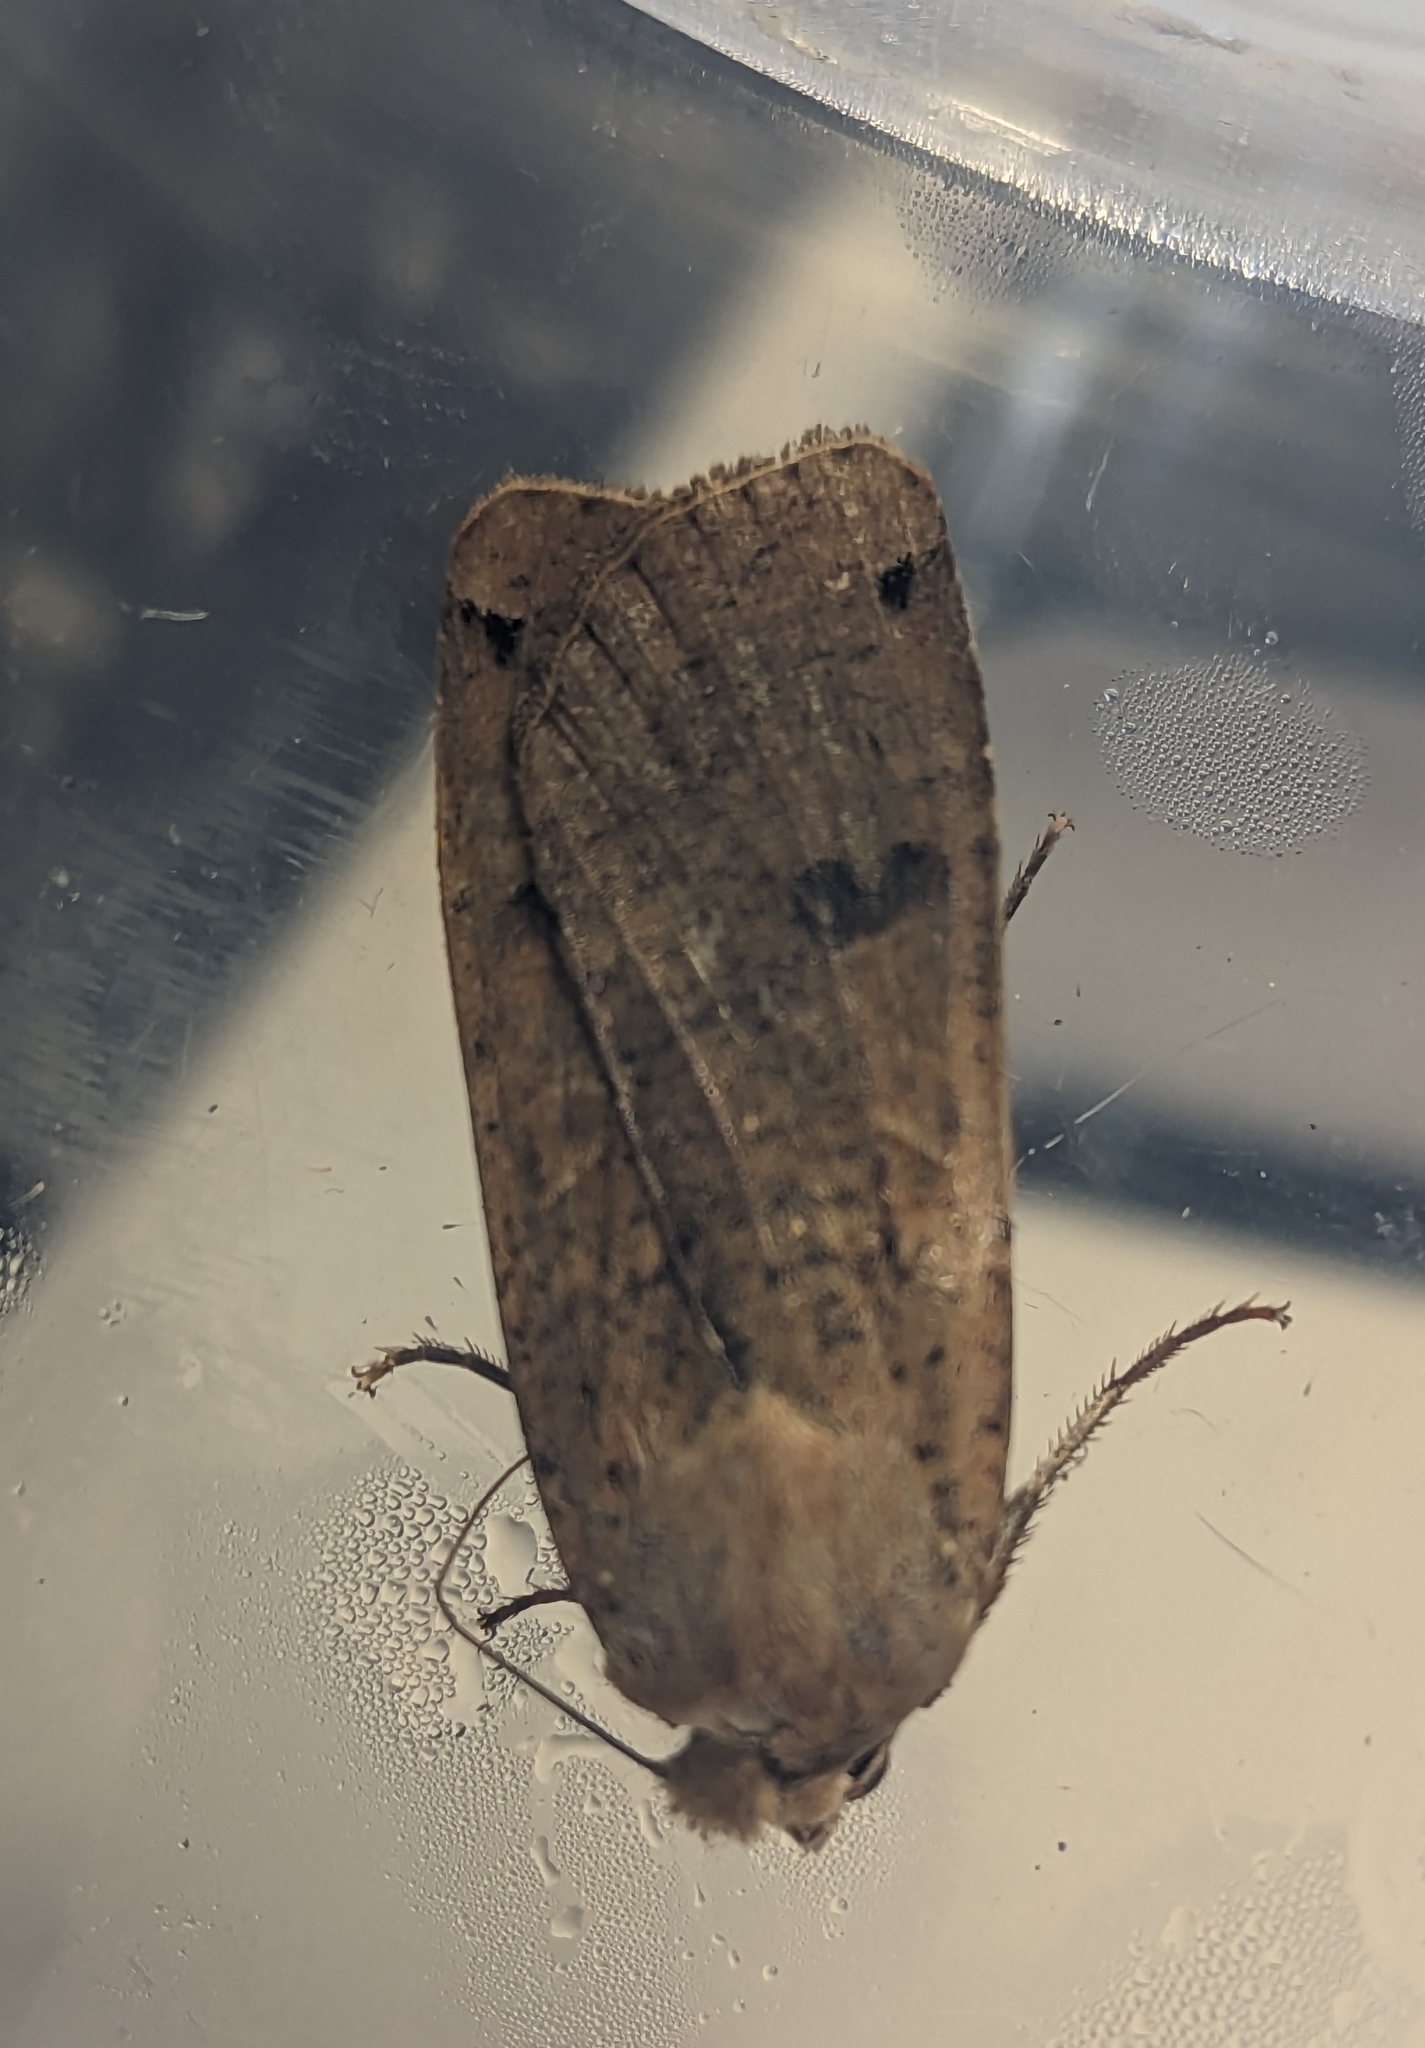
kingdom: Animalia
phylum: Arthropoda
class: Insecta
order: Lepidoptera
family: Noctuidae
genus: Noctua
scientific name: Noctua pronuba
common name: Large yellow underwing
